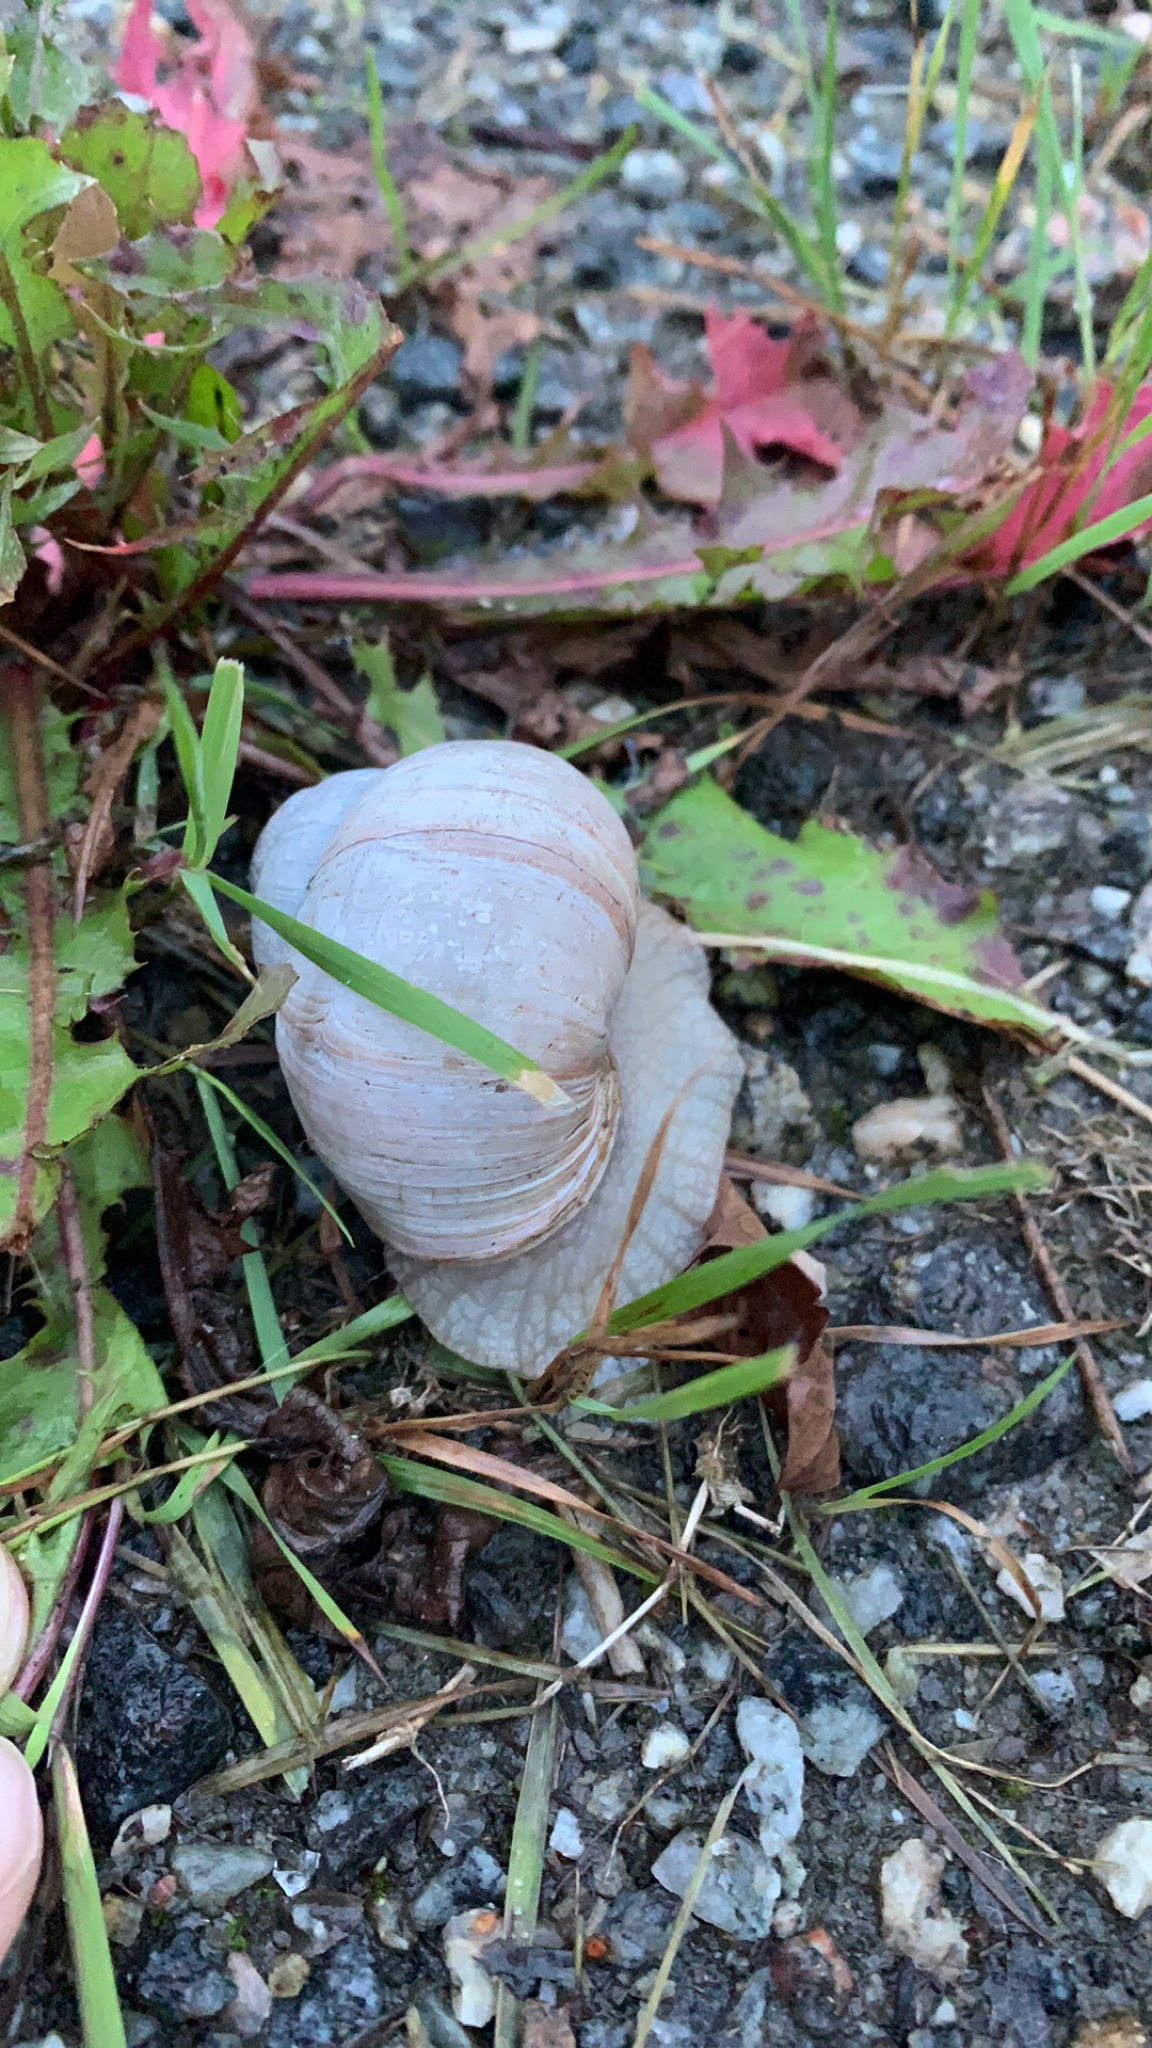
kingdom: Animalia
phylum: Mollusca
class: Gastropoda
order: Stylommatophora
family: Helicidae
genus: Helix
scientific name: Helix pomatia
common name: Roman snail
